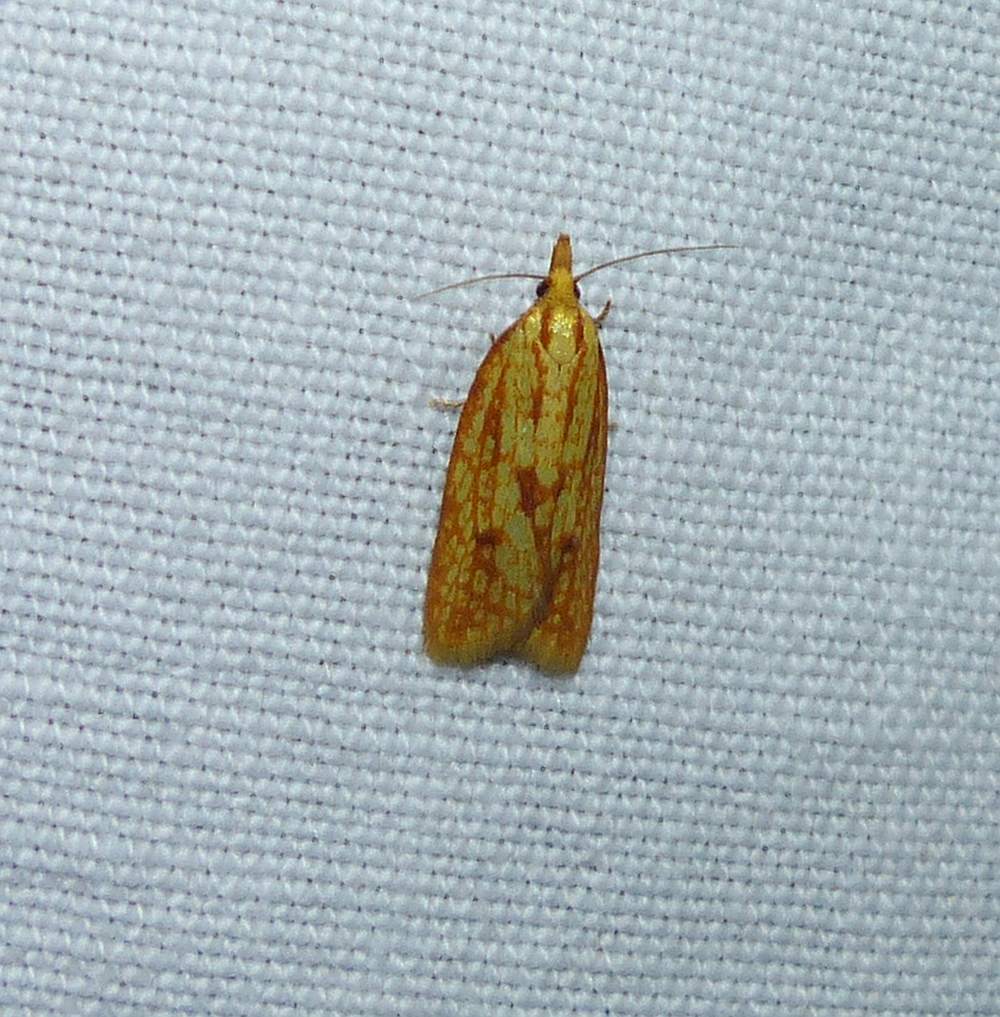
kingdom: Animalia
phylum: Arthropoda
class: Insecta
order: Lepidoptera
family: Tortricidae
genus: Sparganothis
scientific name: Sparganothis sulfureana
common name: Sparganothis fruitworm moth
